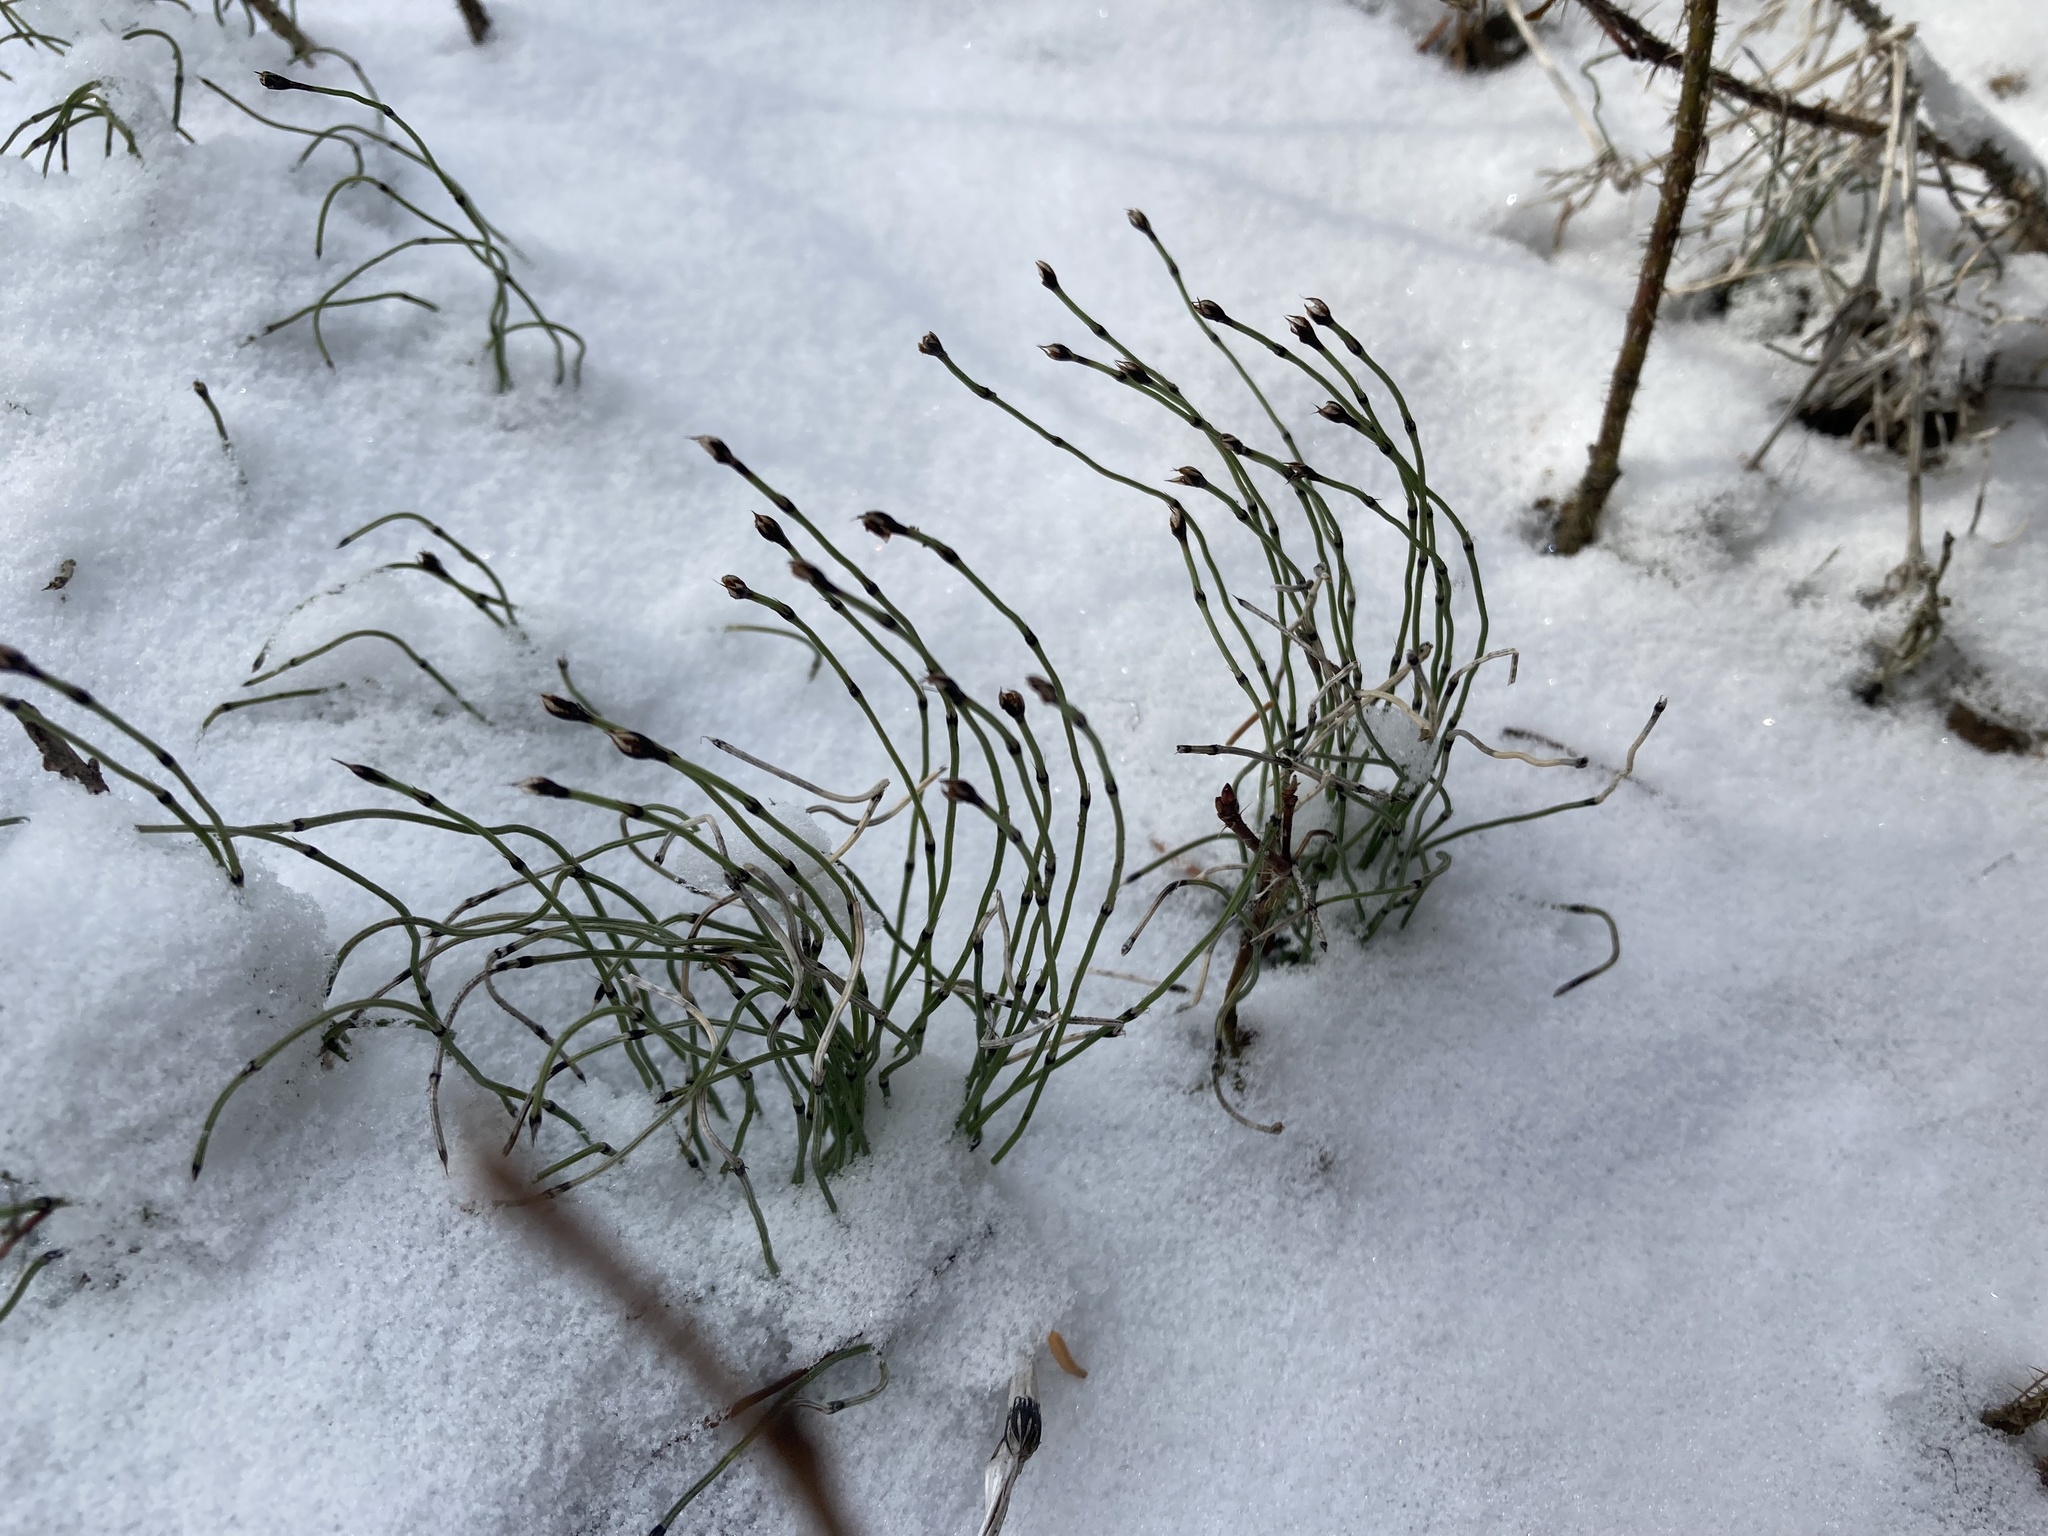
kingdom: Plantae
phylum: Tracheophyta
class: Polypodiopsida
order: Equisetales
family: Equisetaceae
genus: Equisetum
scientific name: Equisetum scirpoides
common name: Delicate horsetail
